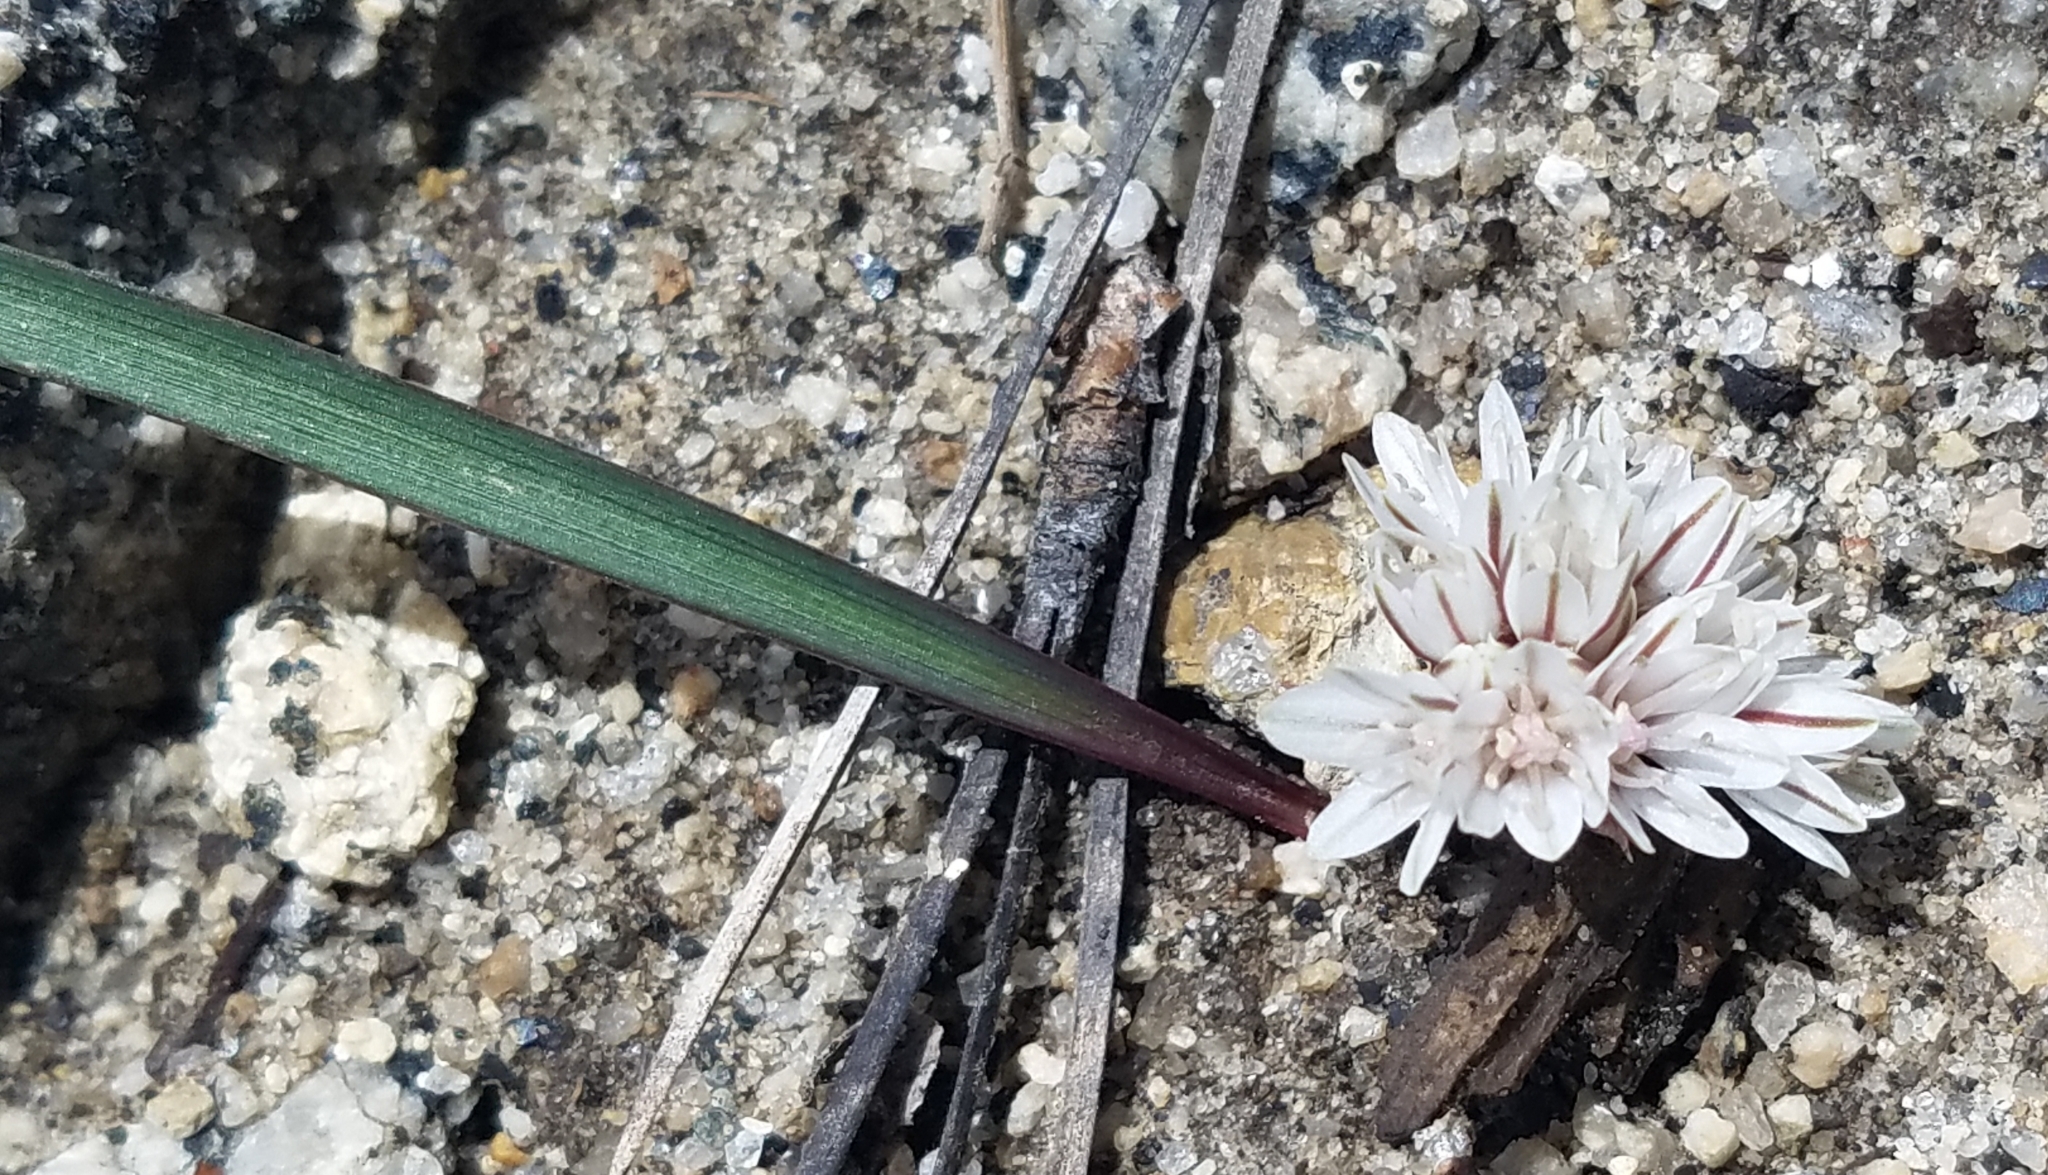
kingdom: Plantae
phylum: Tracheophyta
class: Liliopsida
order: Asparagales
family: Amaryllidaceae
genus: Allium
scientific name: Allium obtusum
